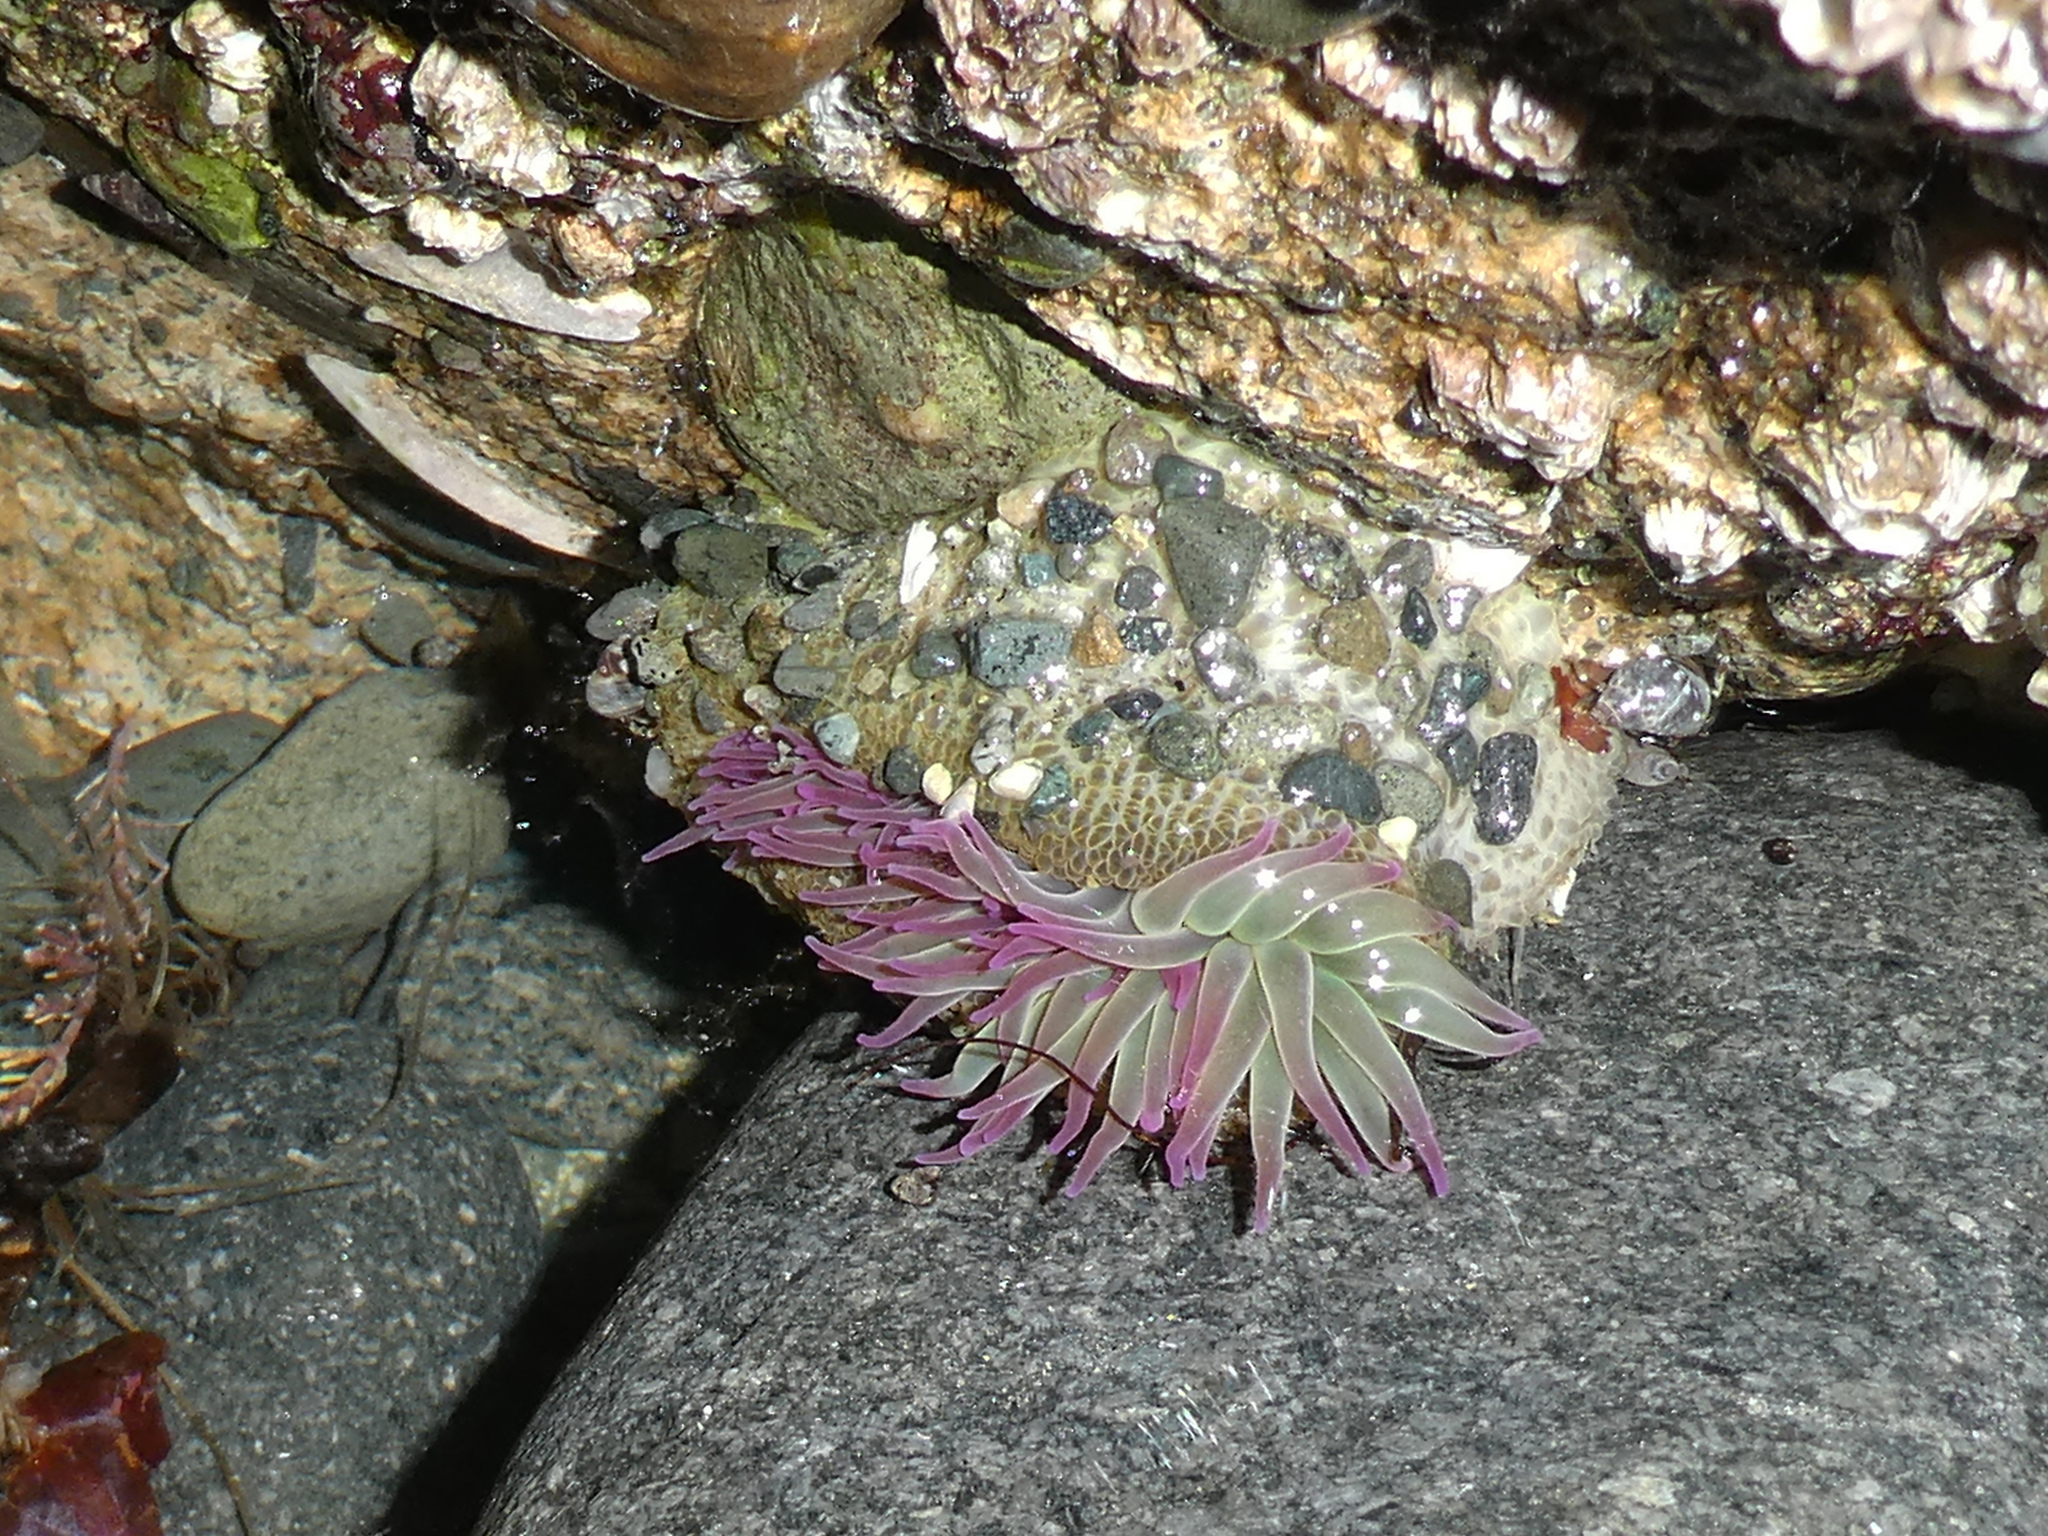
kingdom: Animalia
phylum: Cnidaria
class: Anthozoa
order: Actiniaria
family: Actiniidae
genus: Anthopleura
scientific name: Anthopleura elegantissima
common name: Clonal anemone
